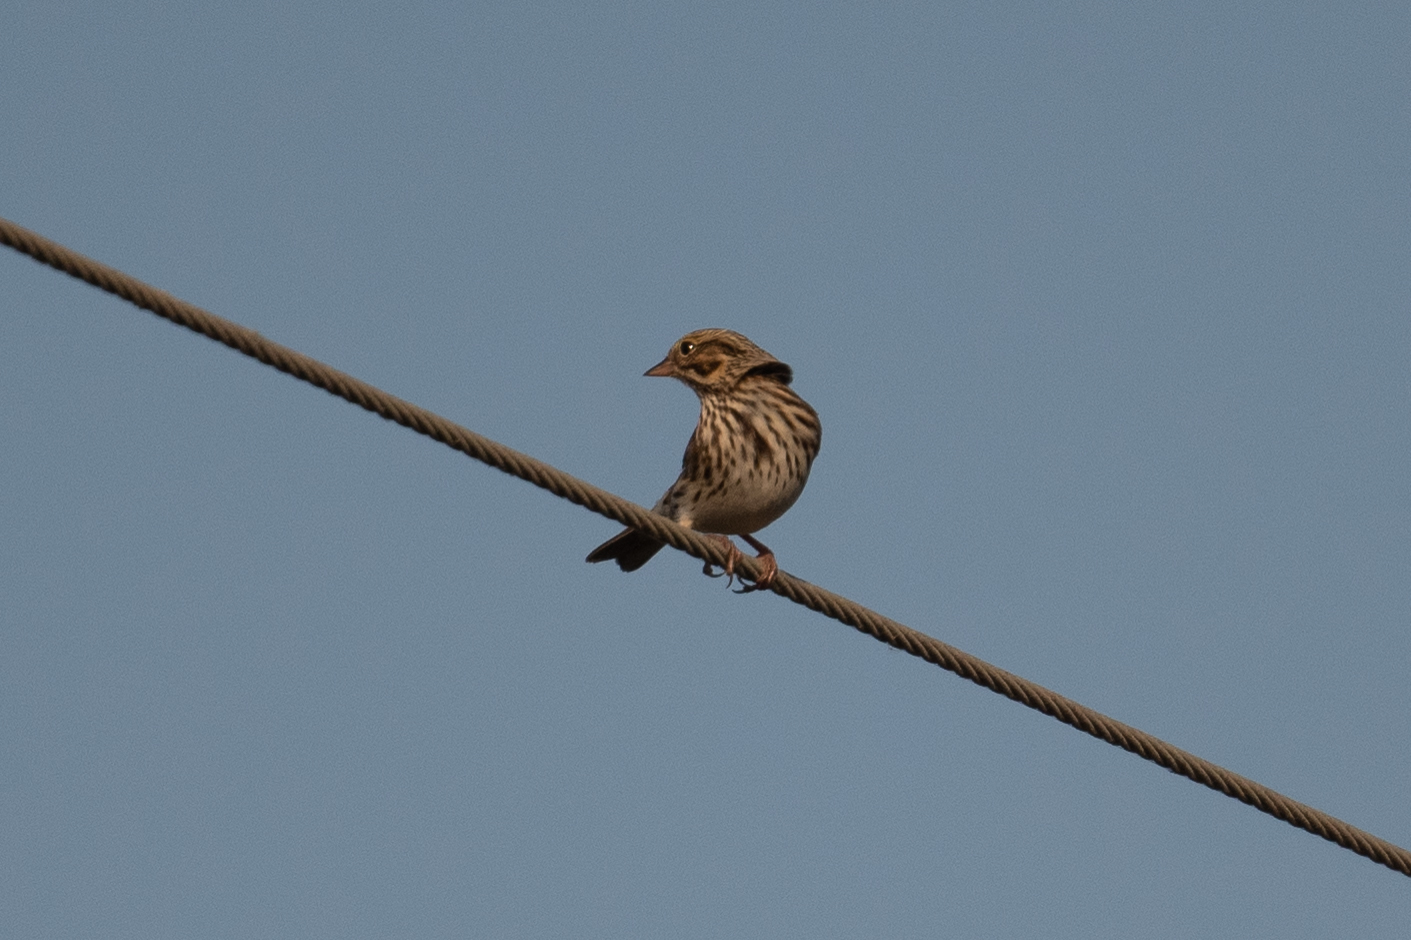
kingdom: Animalia
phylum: Chordata
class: Aves
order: Passeriformes
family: Passerellidae
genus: Passerculus
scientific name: Passerculus sandwichensis
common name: Savannah sparrow
